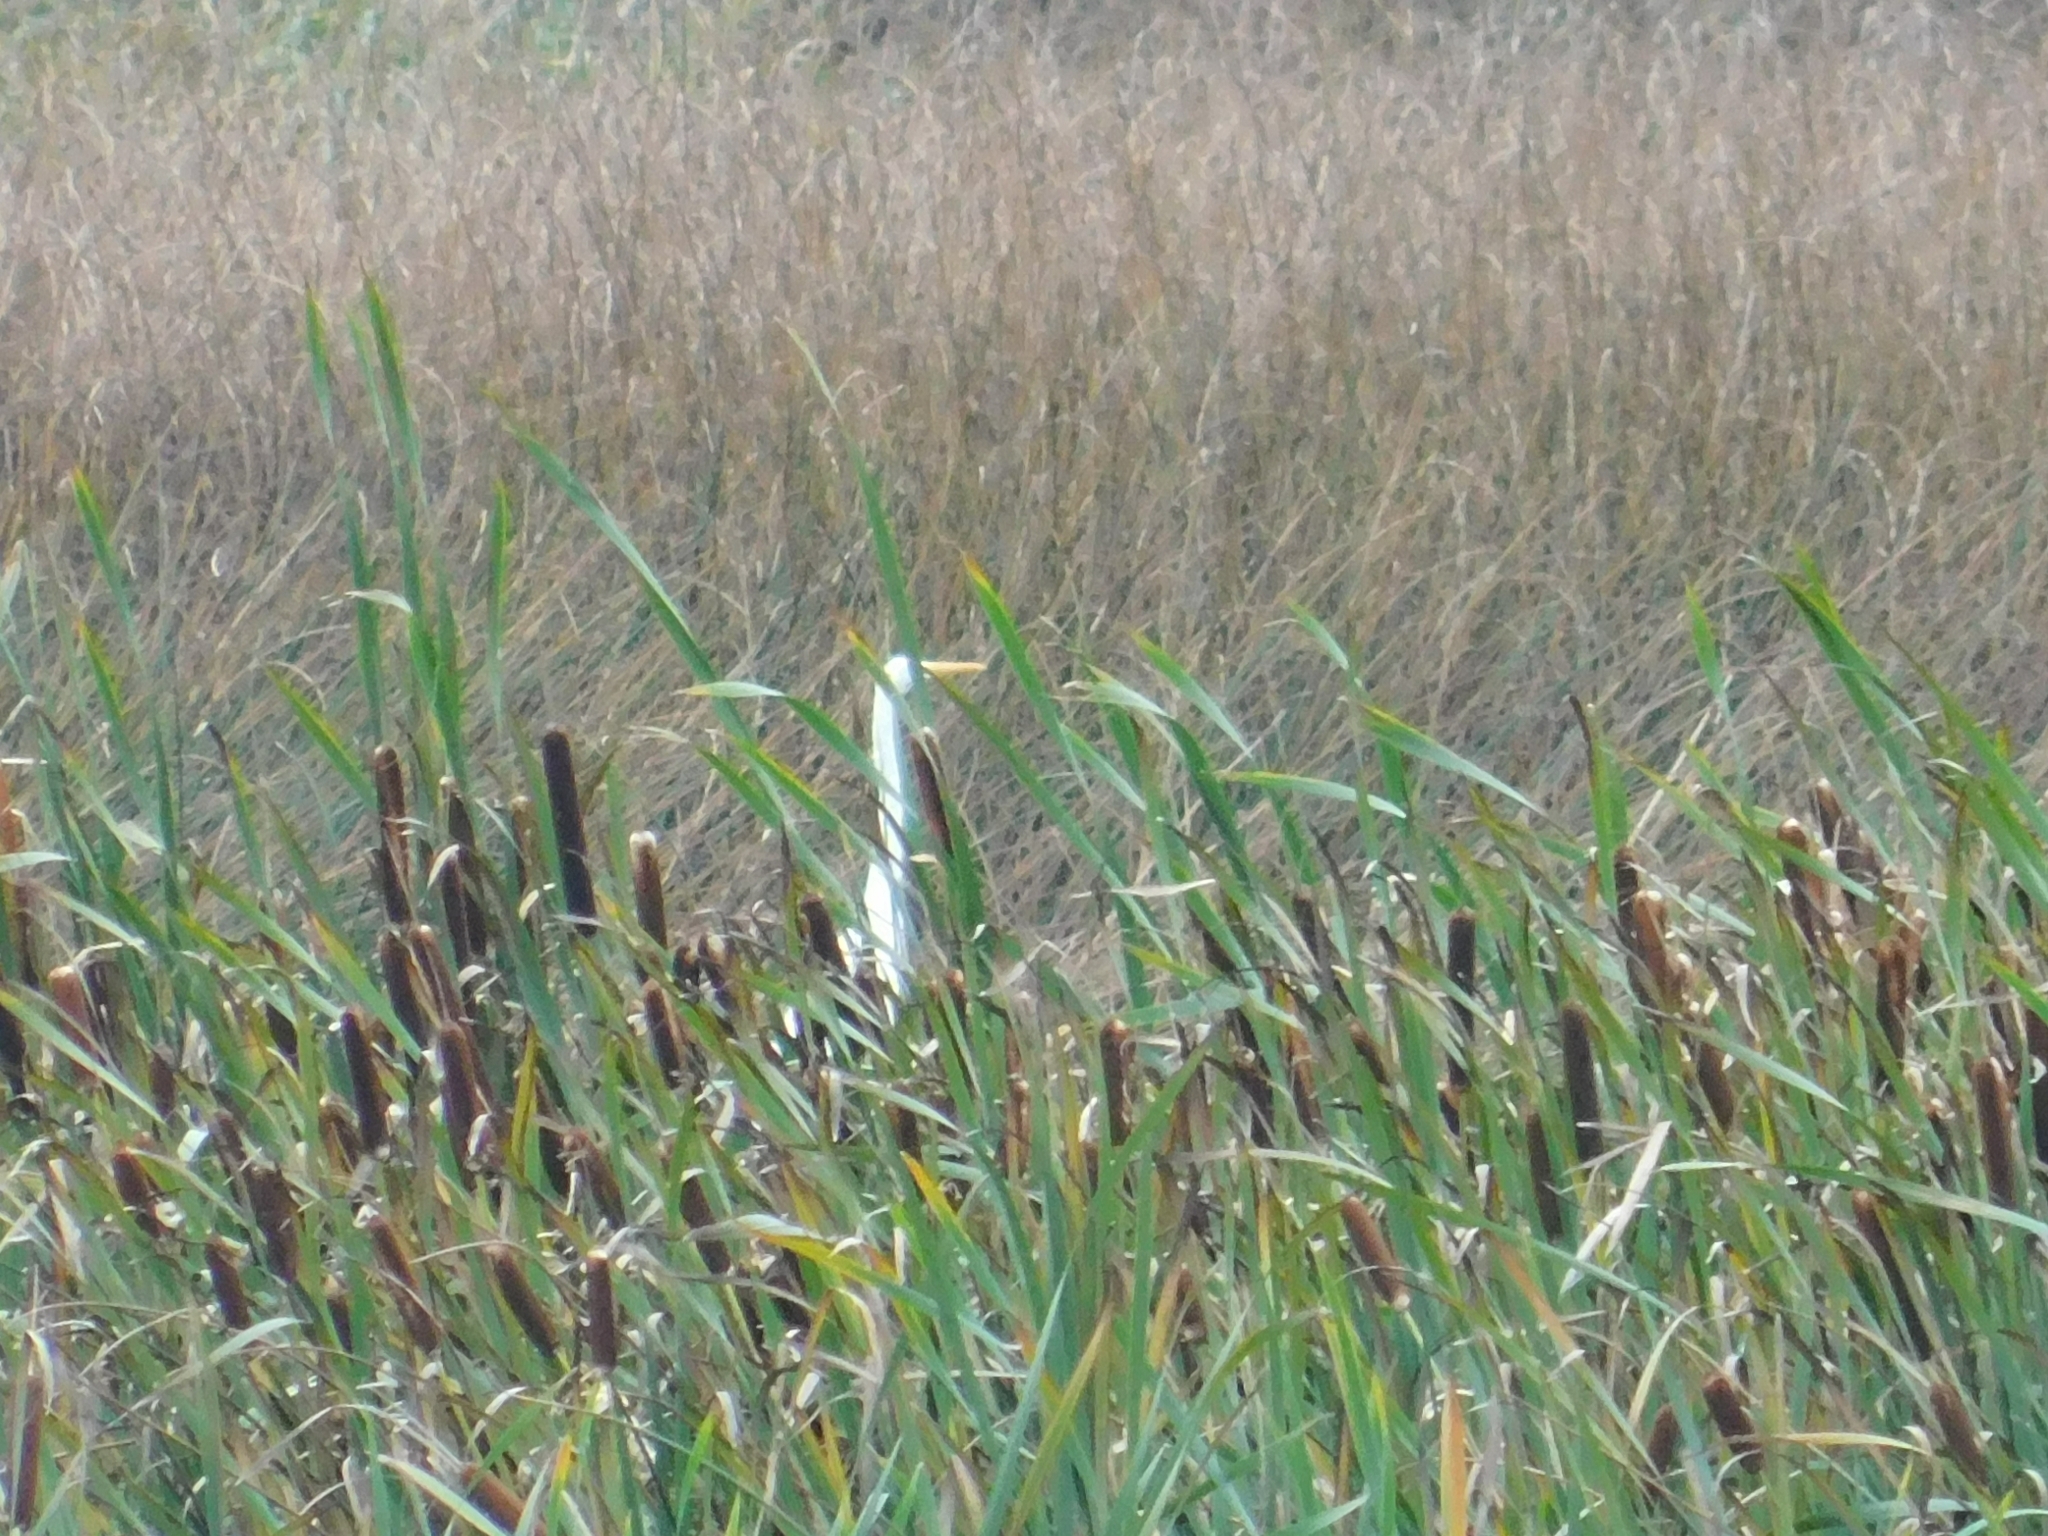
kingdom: Animalia
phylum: Chordata
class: Aves
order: Pelecaniformes
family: Ardeidae
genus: Ardea
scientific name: Ardea alba
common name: Great egret
